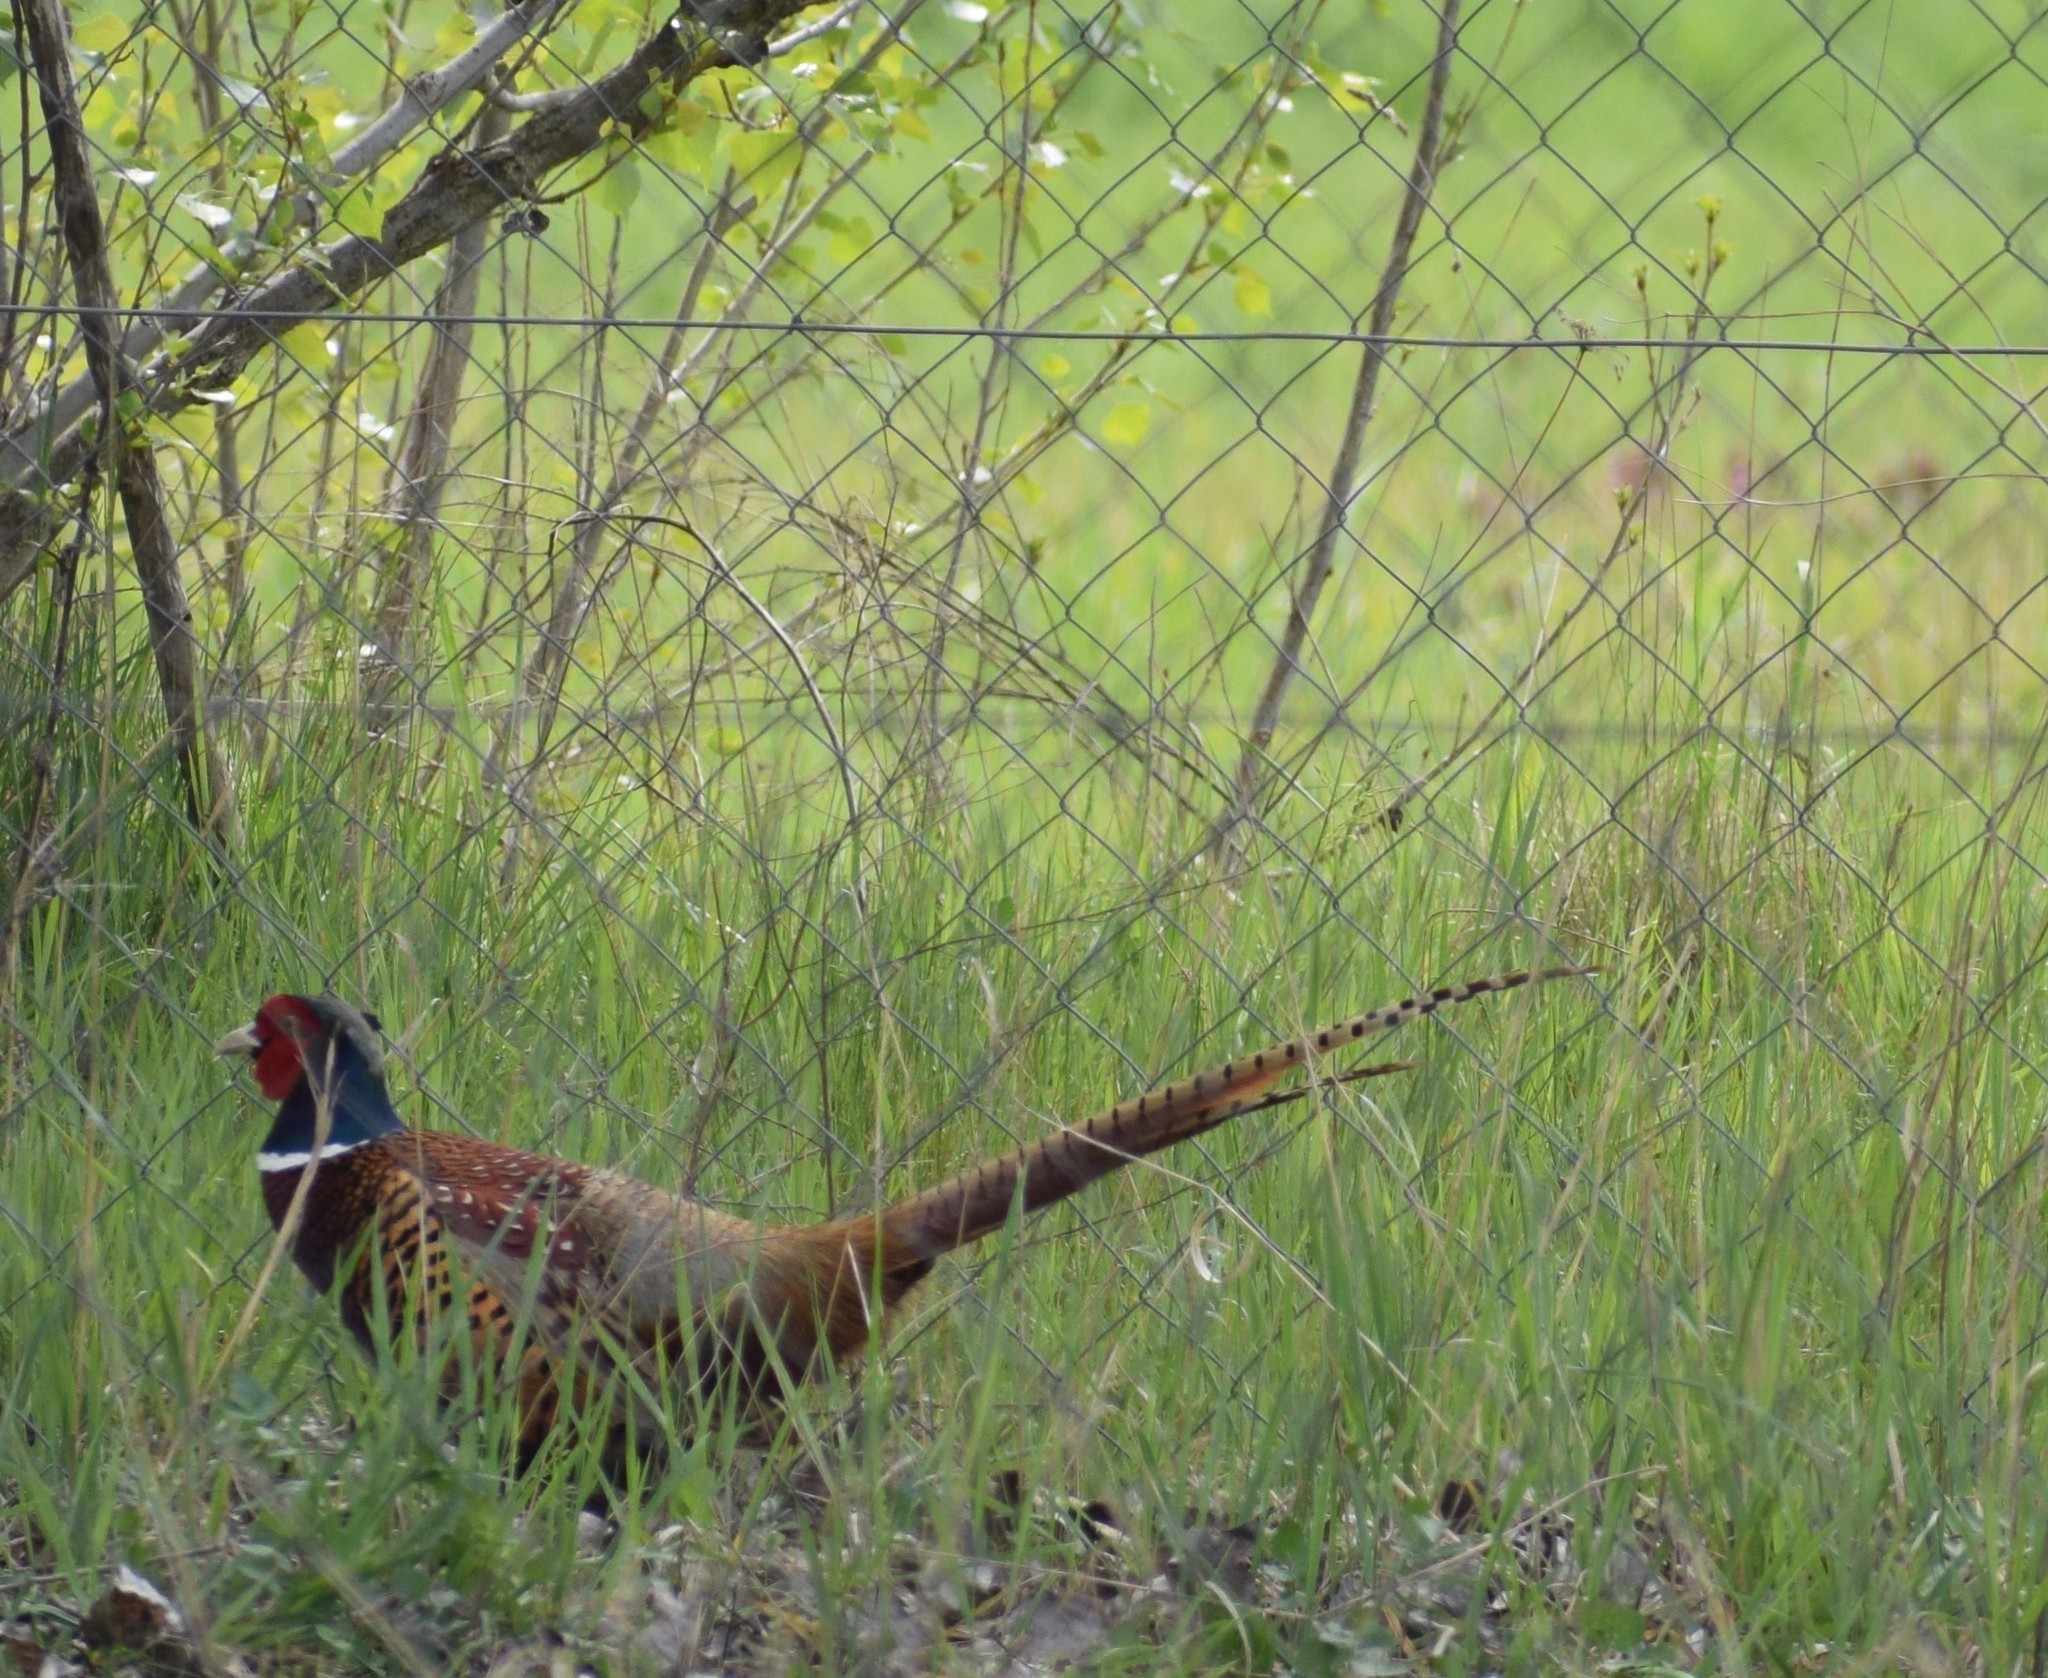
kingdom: Animalia
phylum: Chordata
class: Aves
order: Galliformes
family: Phasianidae
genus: Phasianus
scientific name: Phasianus colchicus
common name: Common pheasant
